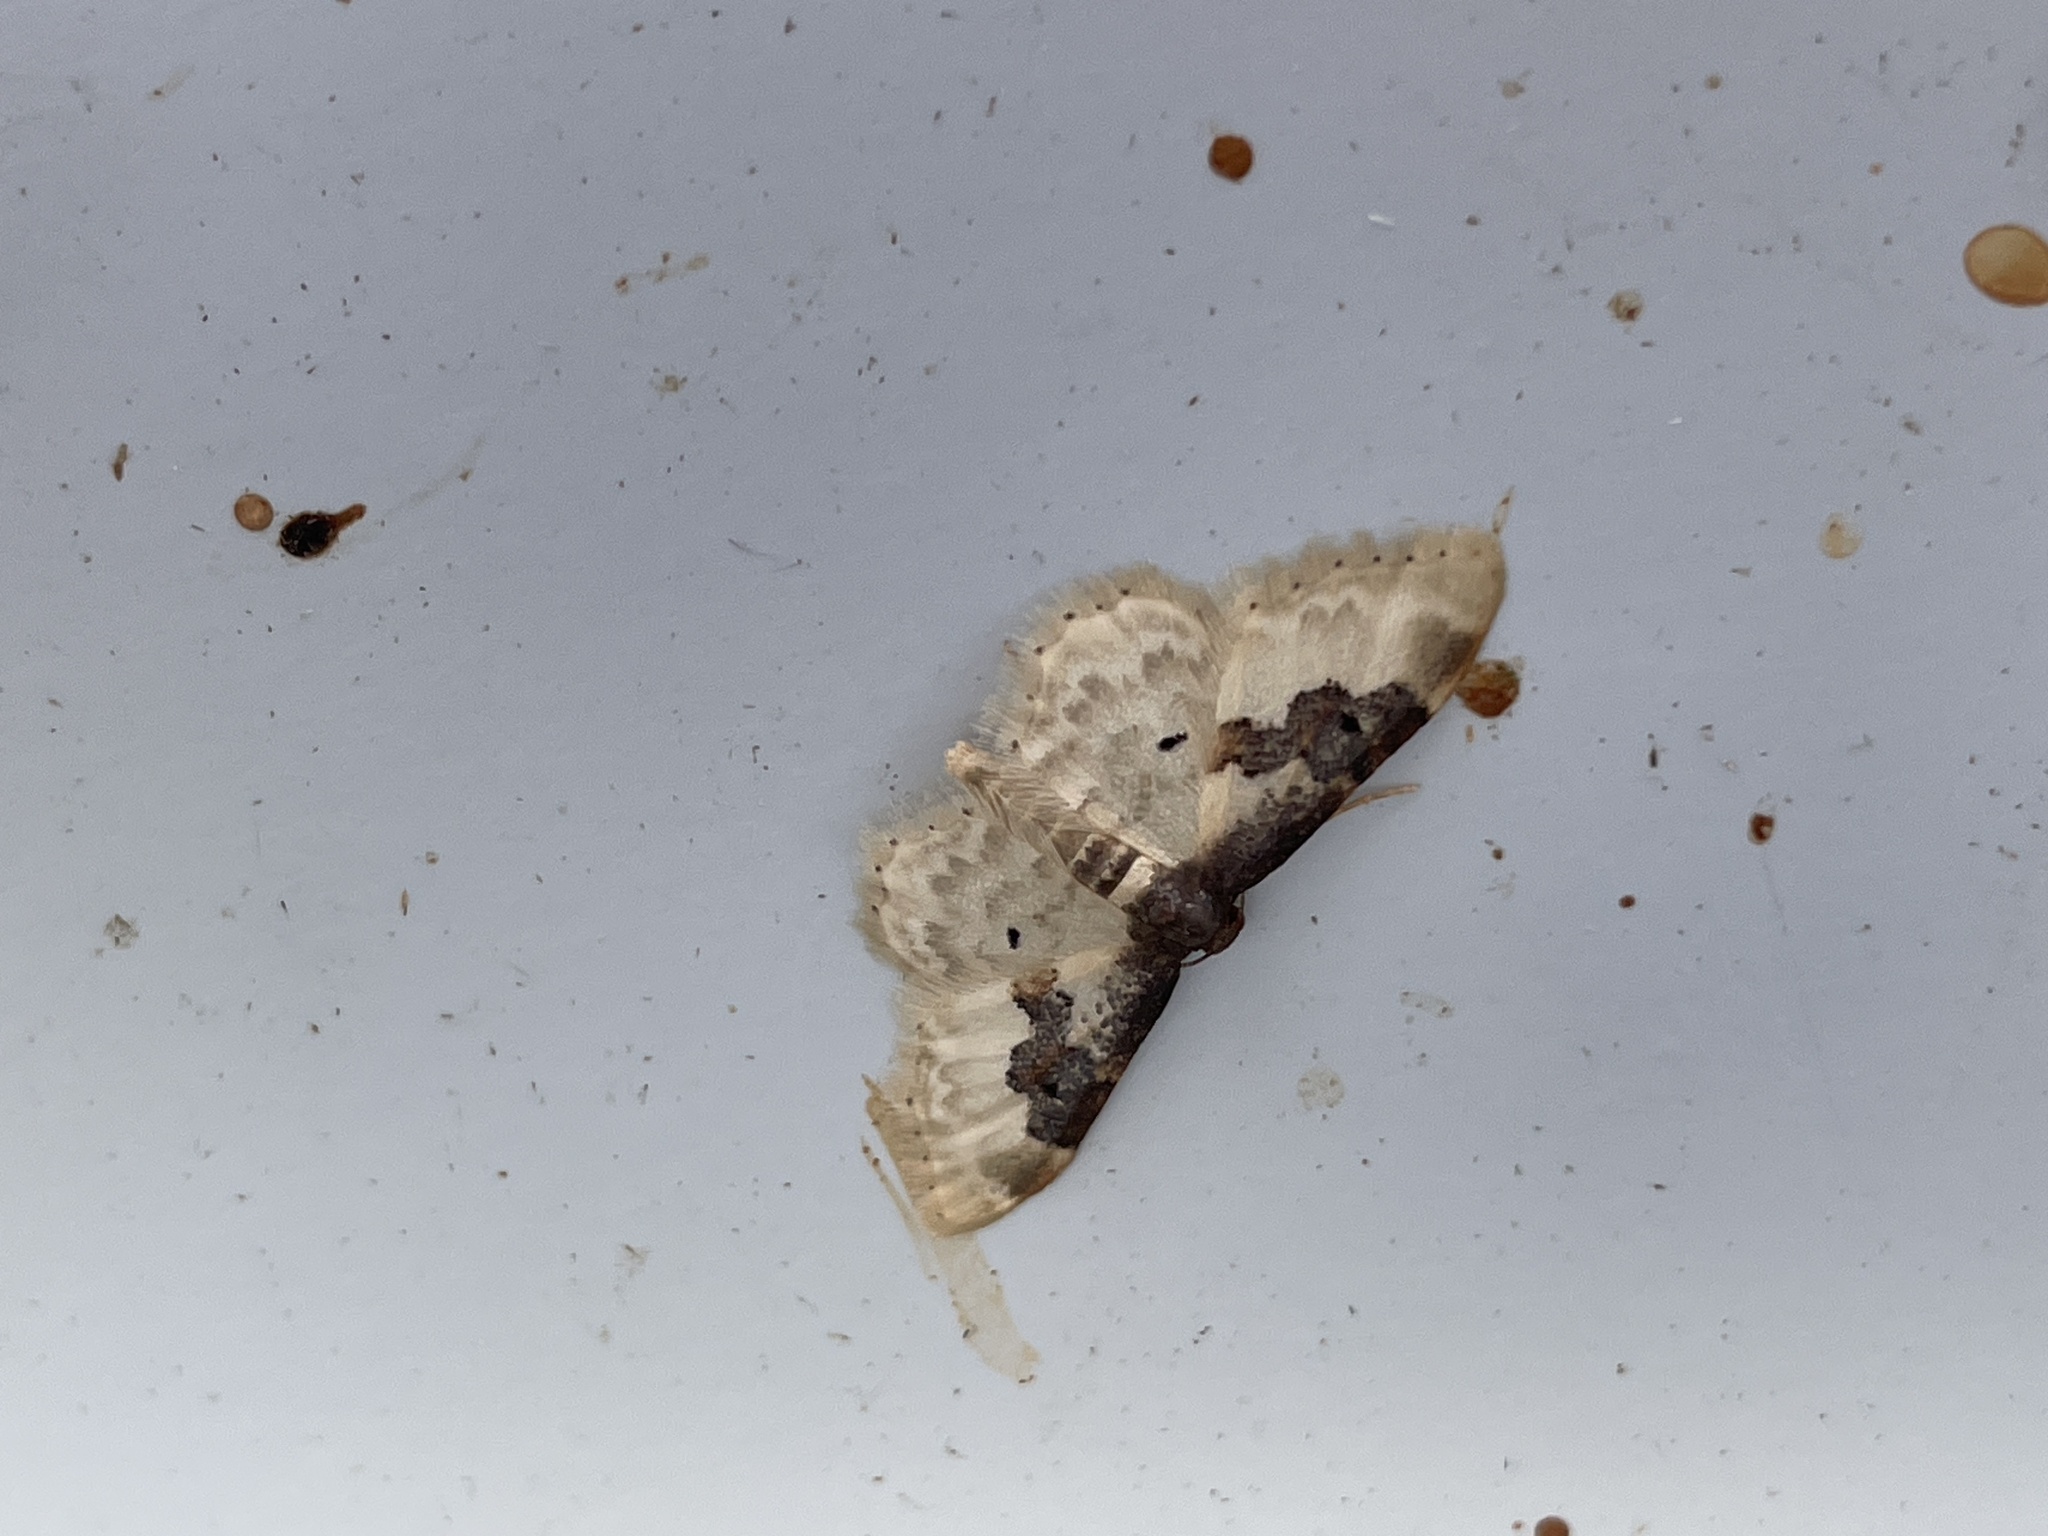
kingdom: Animalia
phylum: Arthropoda
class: Insecta
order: Lepidoptera
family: Geometridae
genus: Idaea
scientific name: Idaea rusticata
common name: Least carpet
